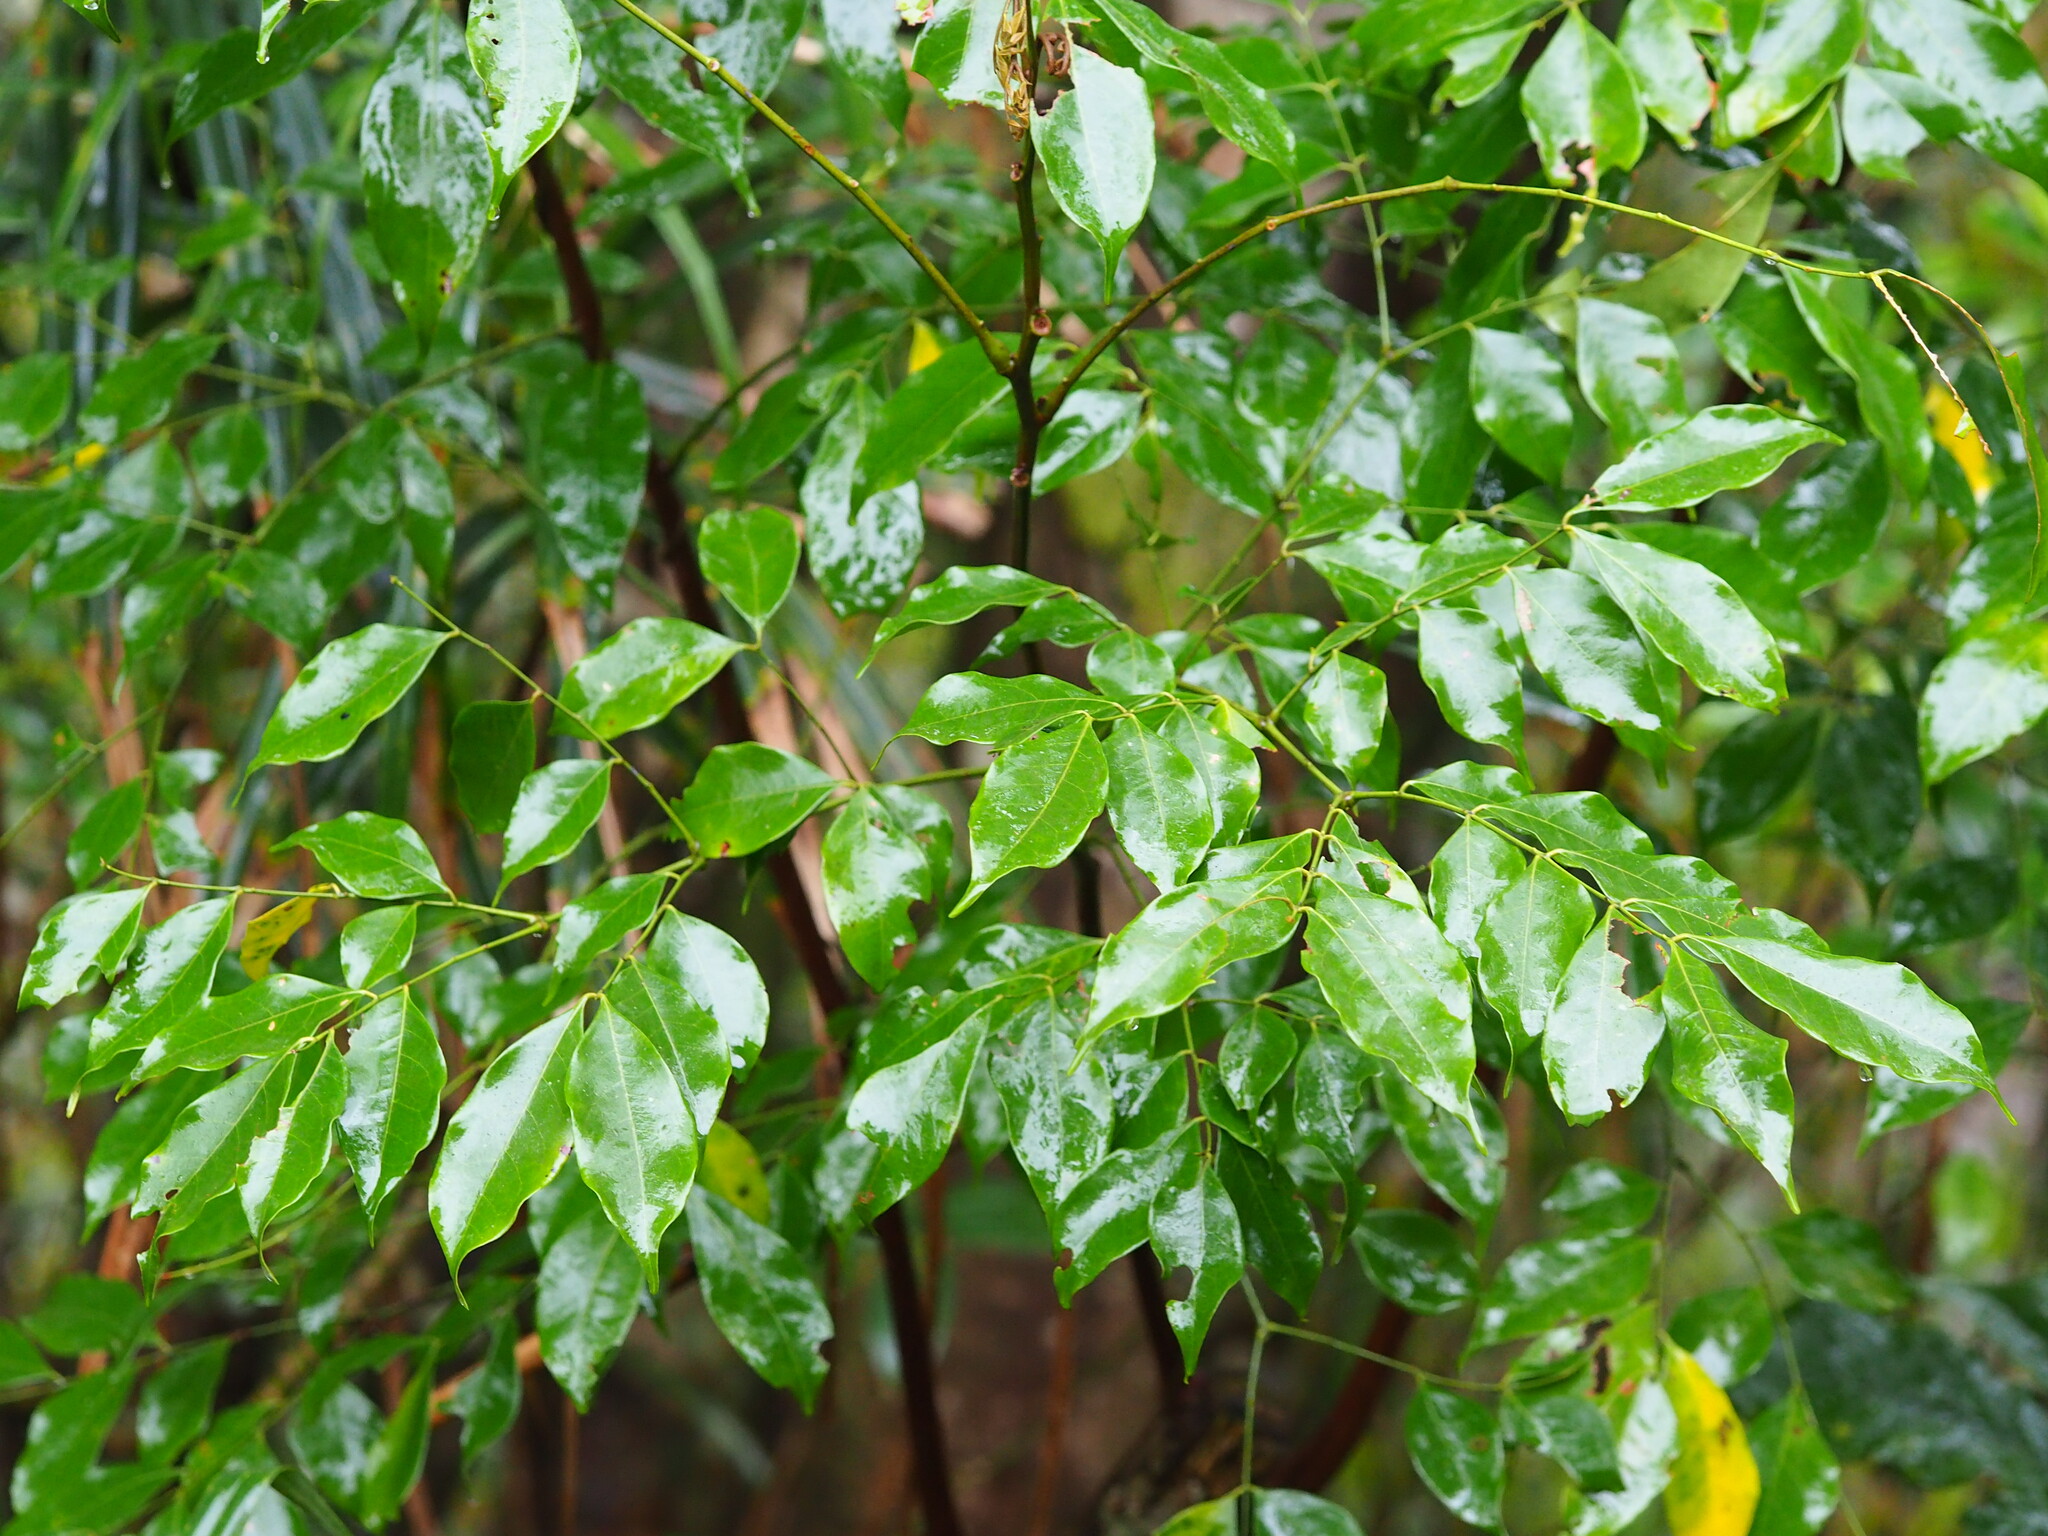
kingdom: Plantae
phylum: Tracheophyta
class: Magnoliopsida
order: Fabales
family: Fabaceae
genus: Archidendron
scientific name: Archidendron lucidum
